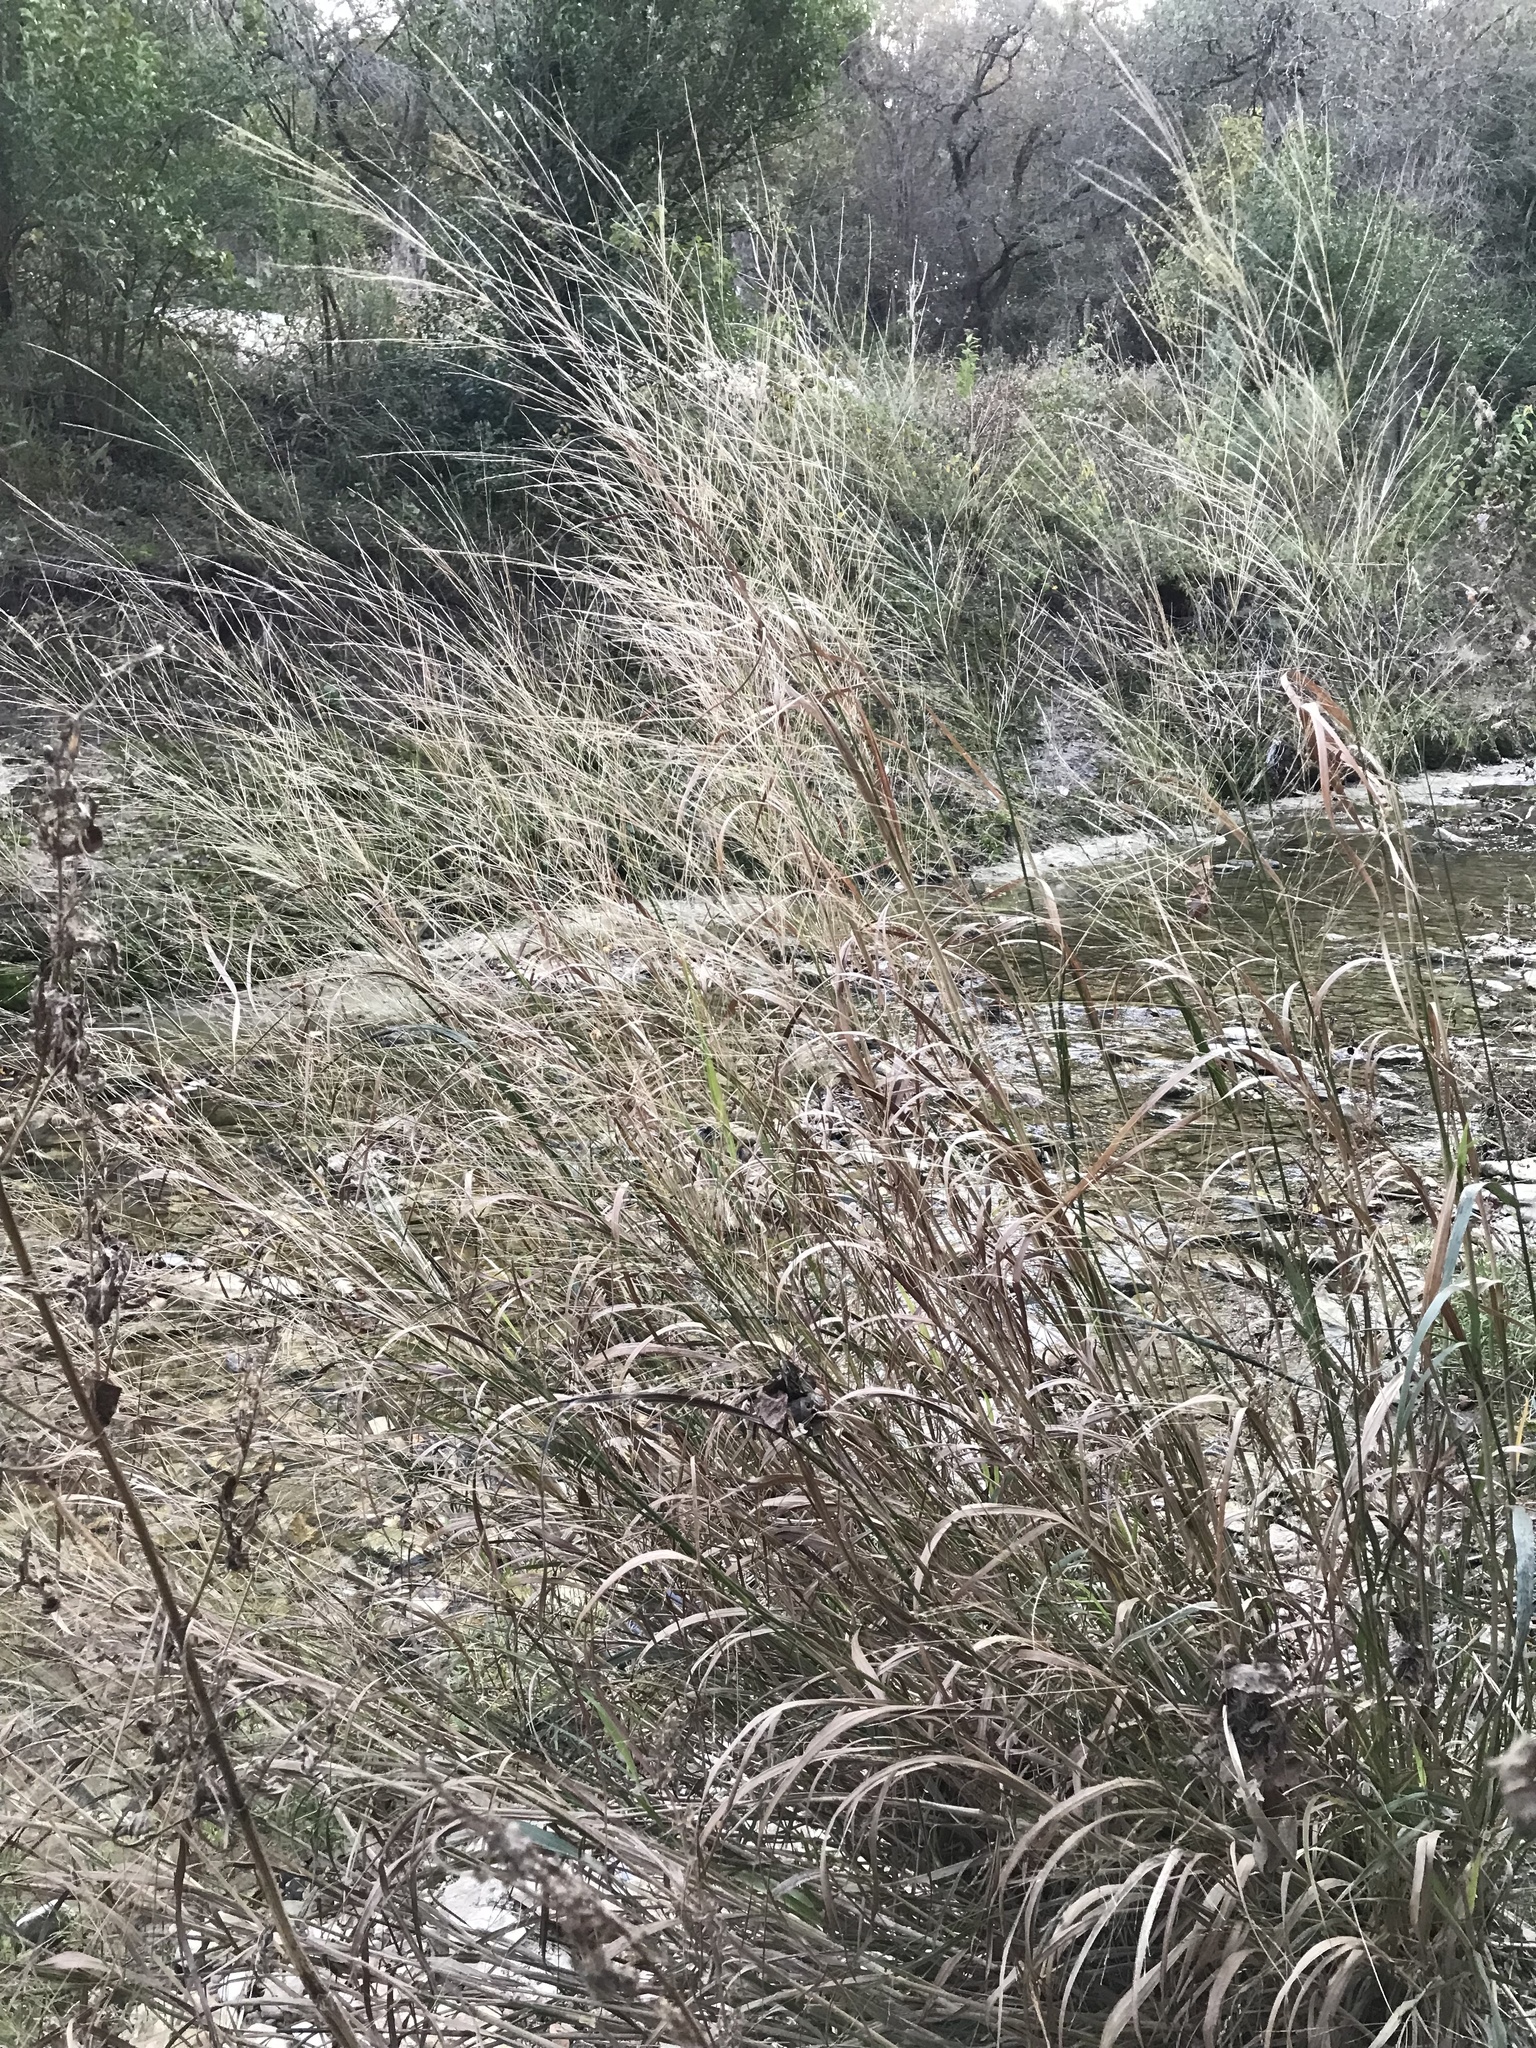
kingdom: Plantae
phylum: Tracheophyta
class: Liliopsida
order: Poales
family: Poaceae
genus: Panicum
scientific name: Panicum virgatum
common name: Switchgrass
